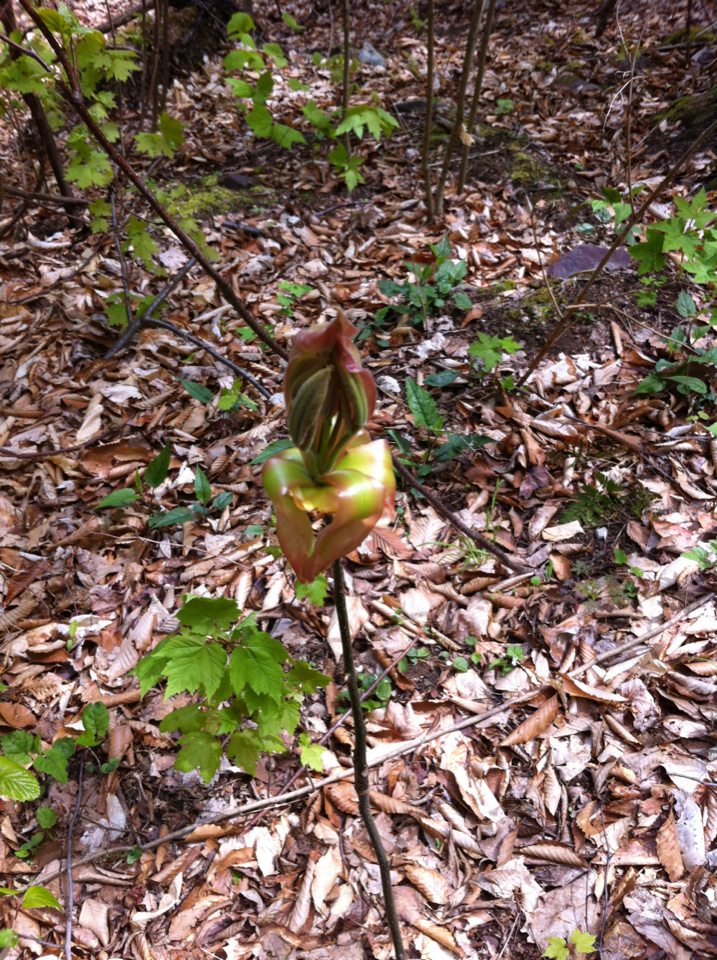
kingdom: Plantae
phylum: Tracheophyta
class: Magnoliopsida
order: Fagales
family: Juglandaceae
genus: Carya
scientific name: Carya ovata
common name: Shagbark hickory
